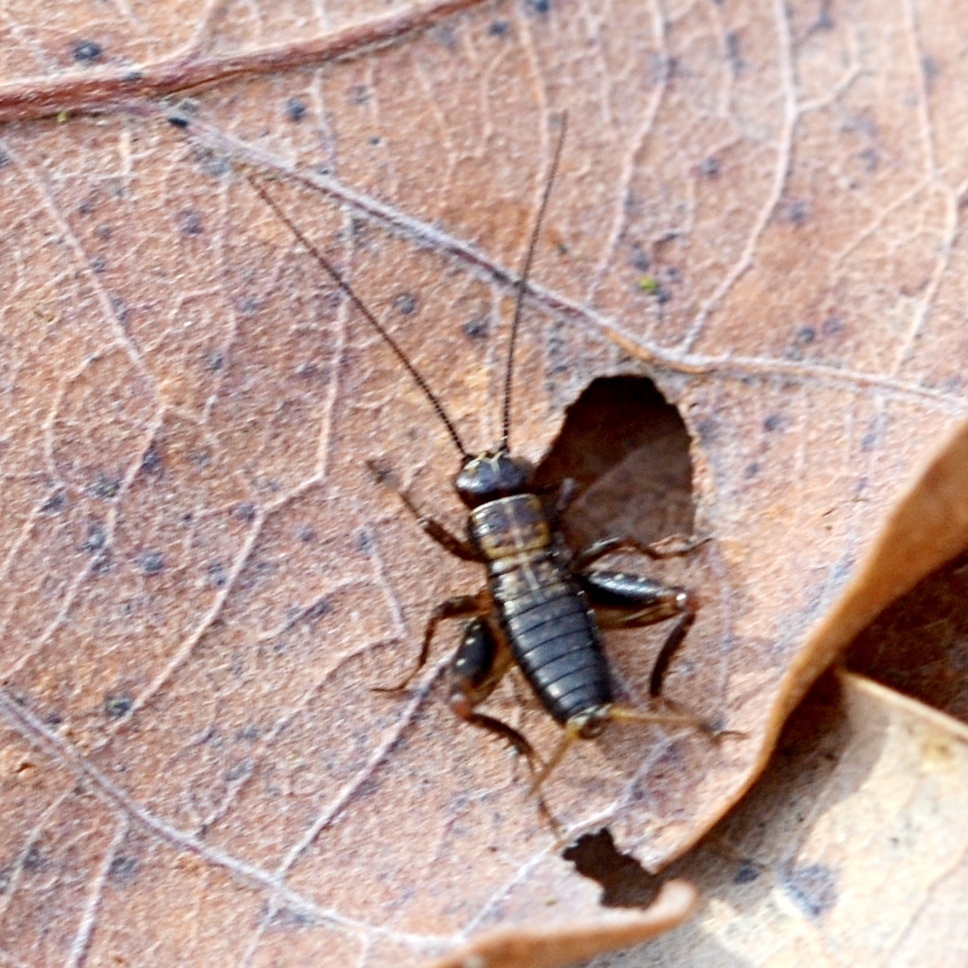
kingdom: Animalia
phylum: Arthropoda
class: Insecta
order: Orthoptera
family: Trigonidiidae
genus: Nemobius
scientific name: Nemobius sylvestris
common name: Wood-cricket
